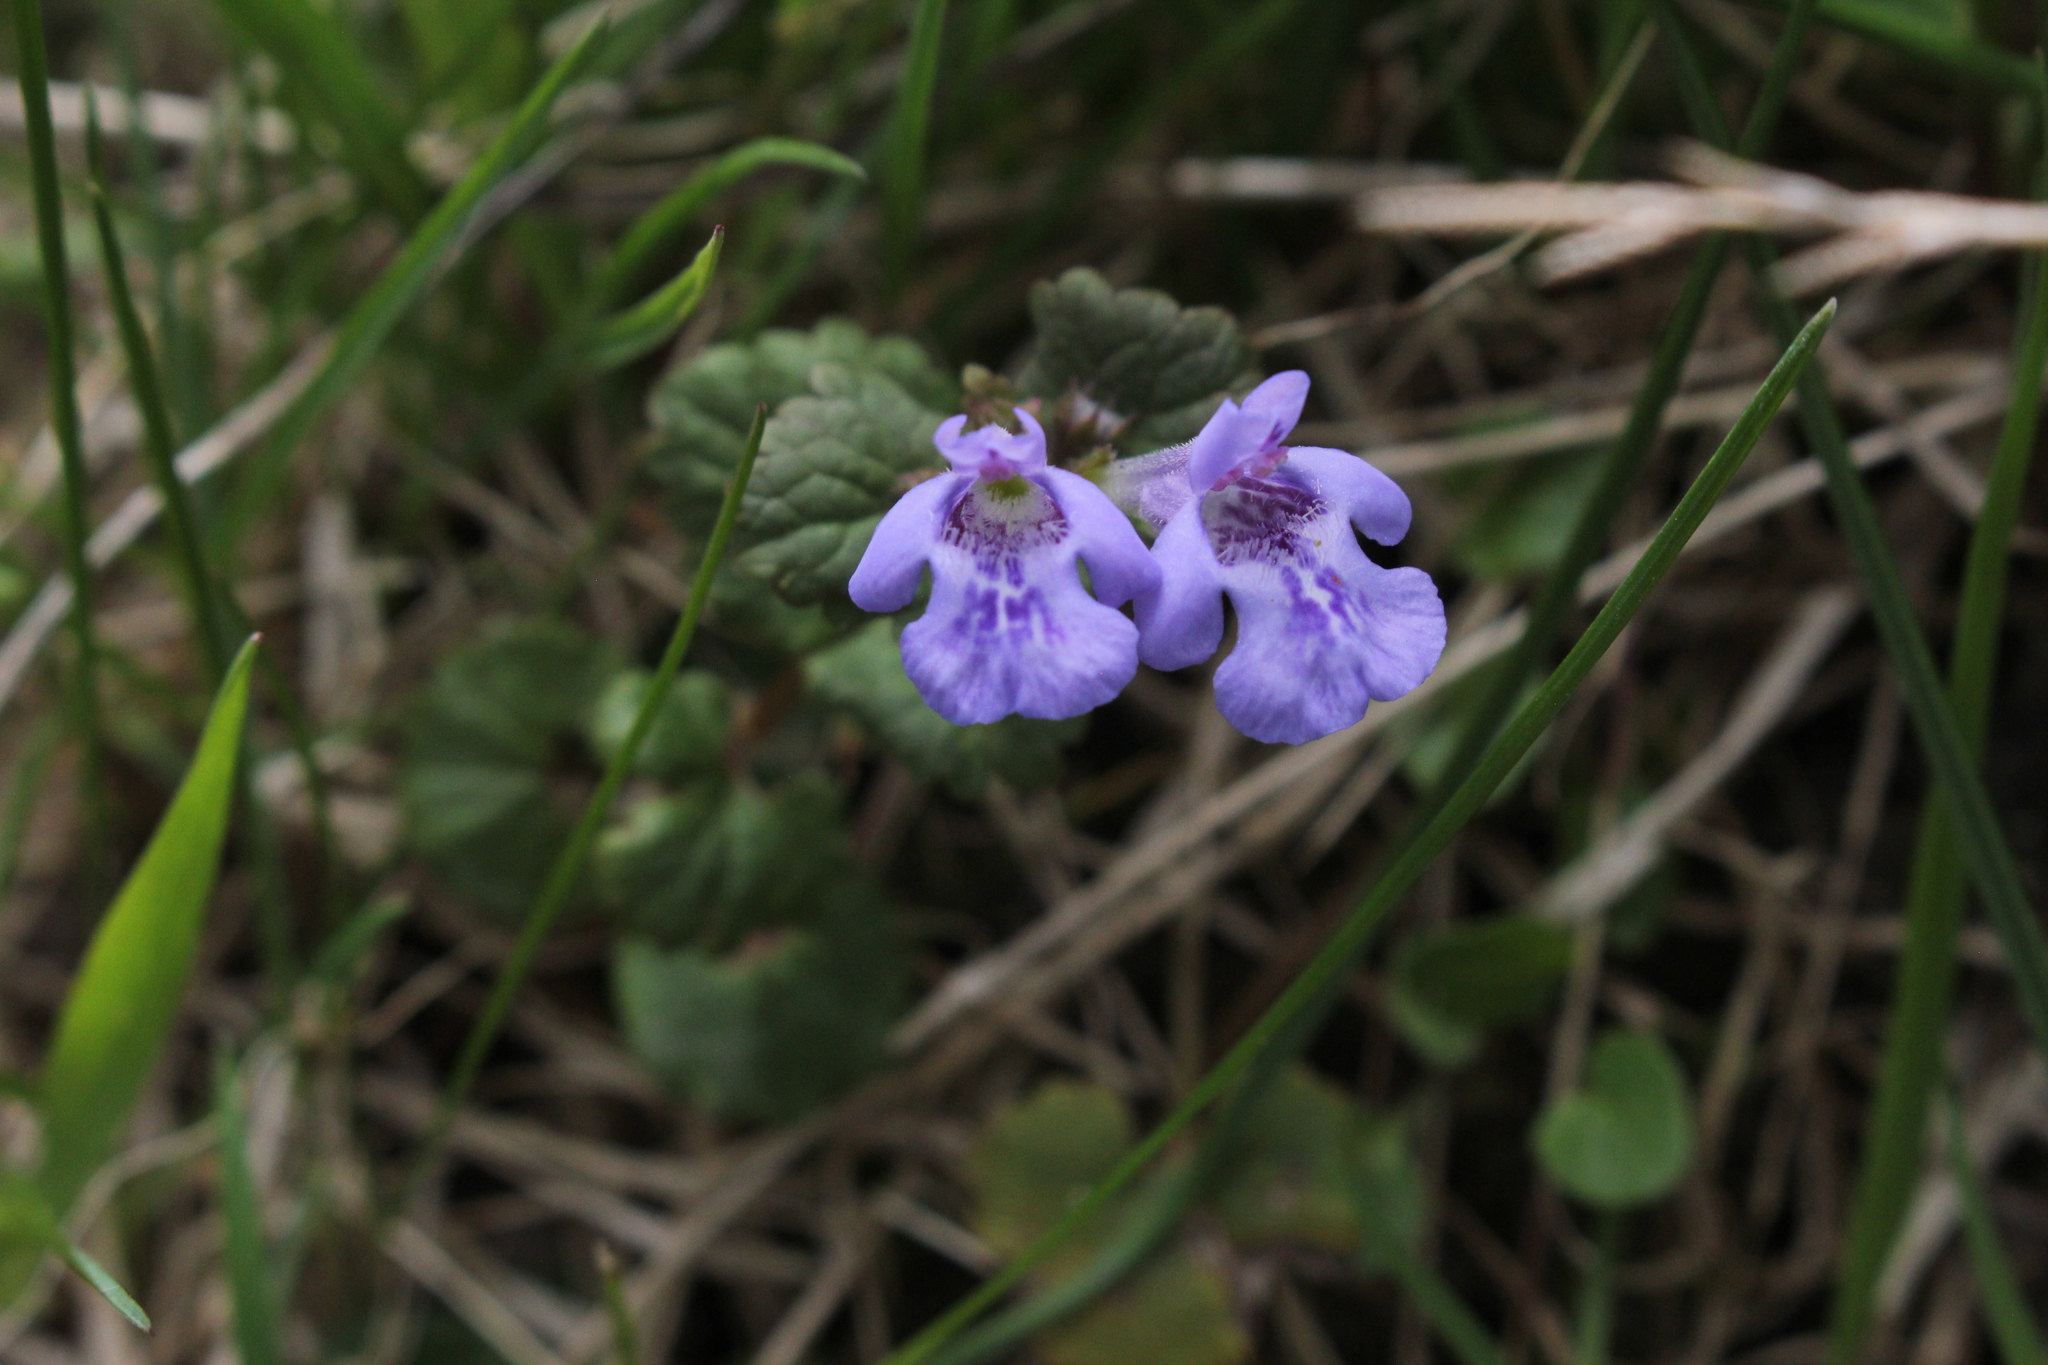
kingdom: Plantae
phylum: Tracheophyta
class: Magnoliopsida
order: Lamiales
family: Lamiaceae
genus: Glechoma
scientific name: Glechoma hederacea
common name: Ground ivy
